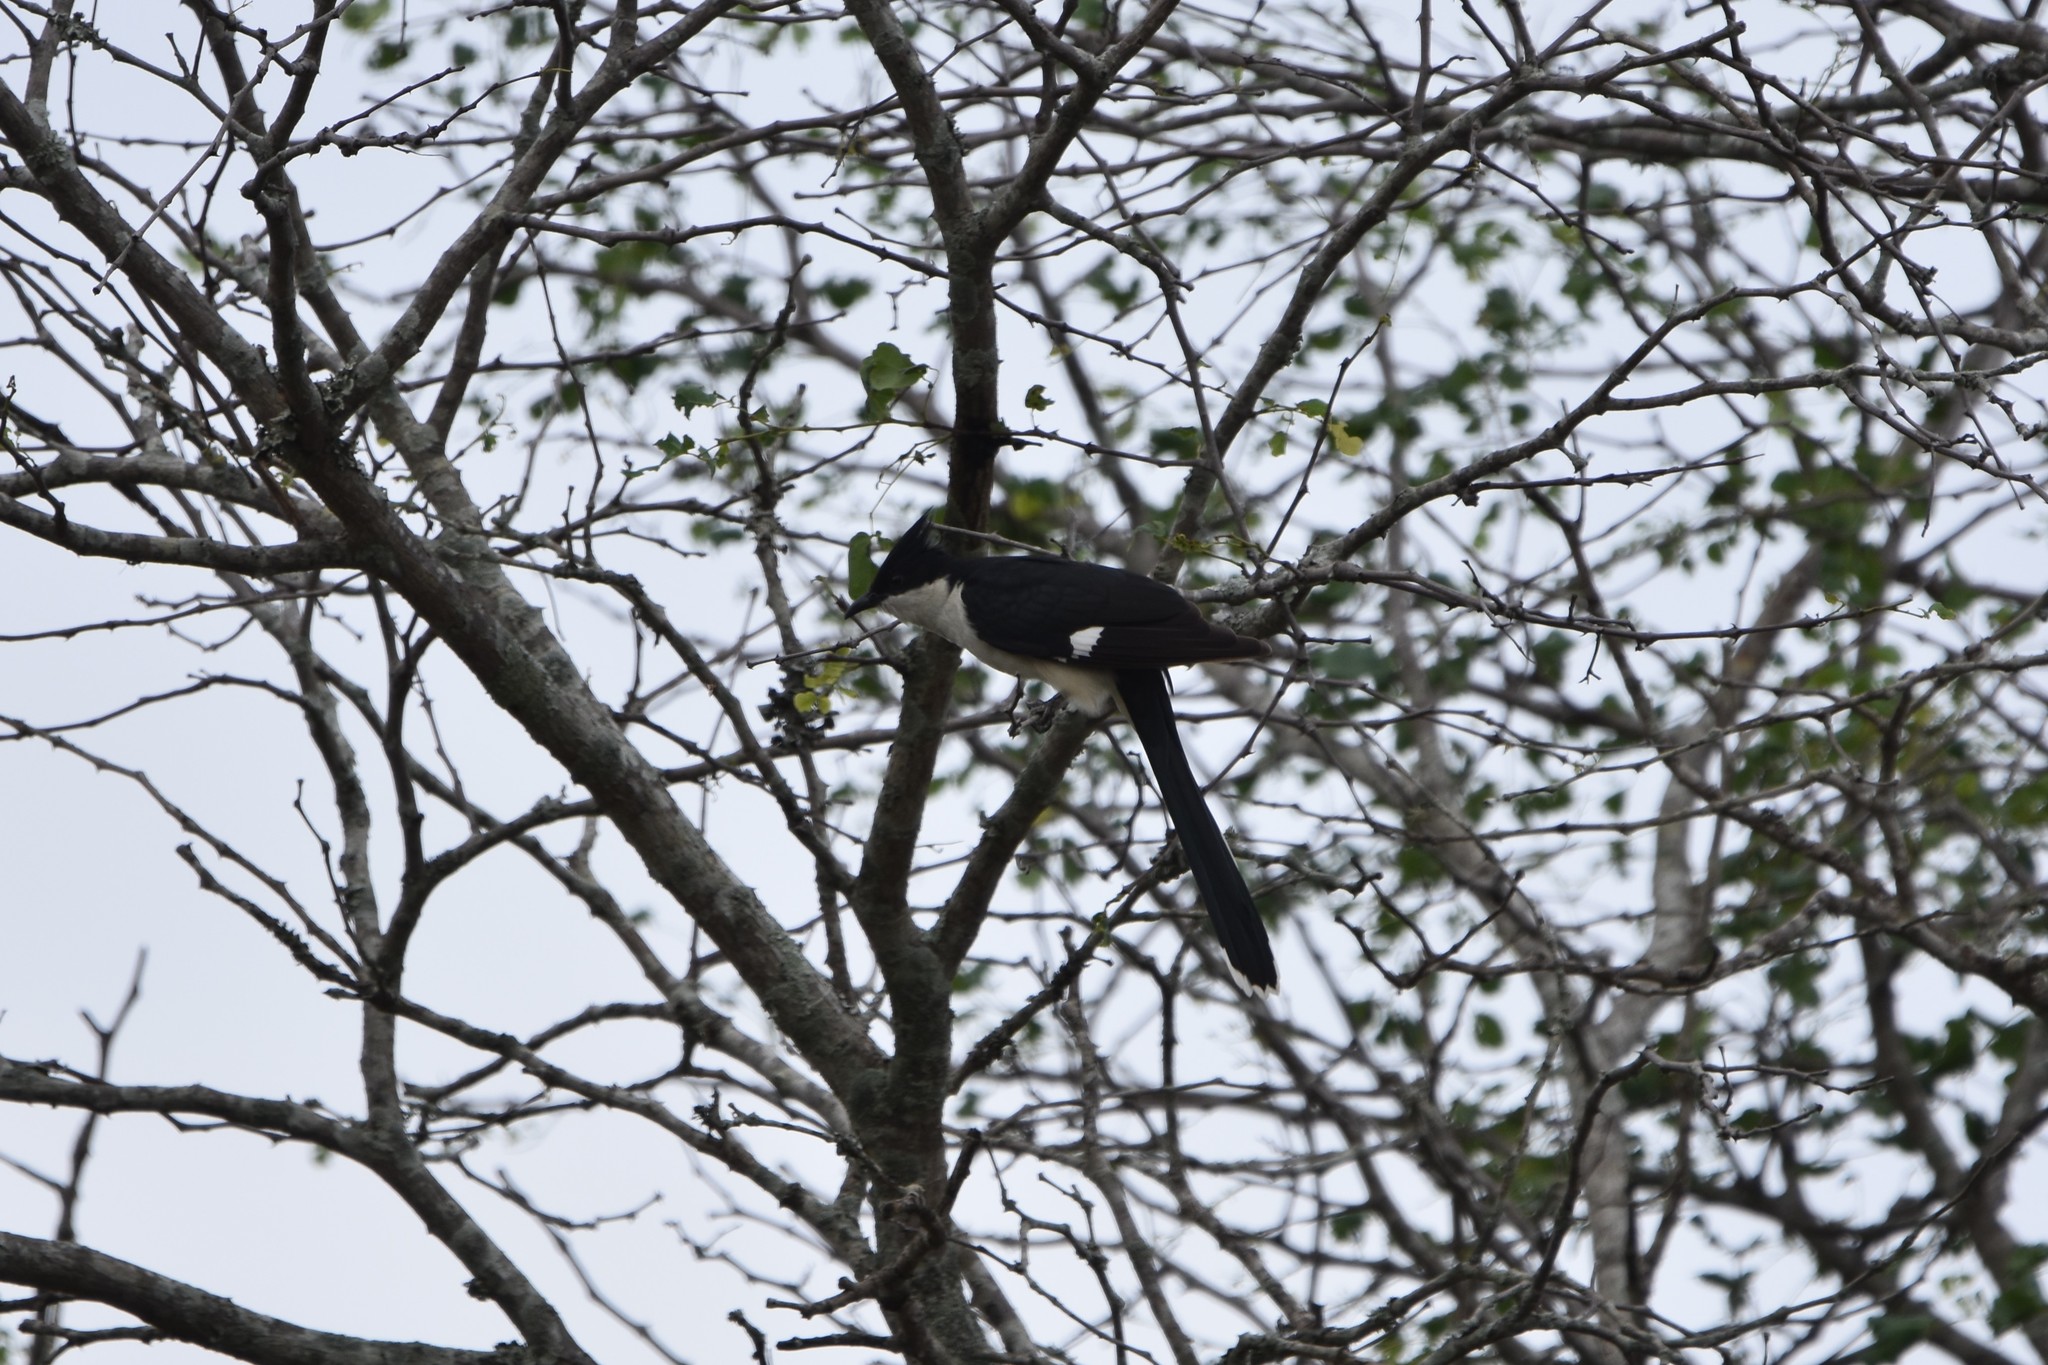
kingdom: Animalia
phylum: Chordata
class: Aves
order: Cuculiformes
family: Cuculidae
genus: Clamator
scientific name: Clamator jacobinus
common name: Jacobin cuckoo
